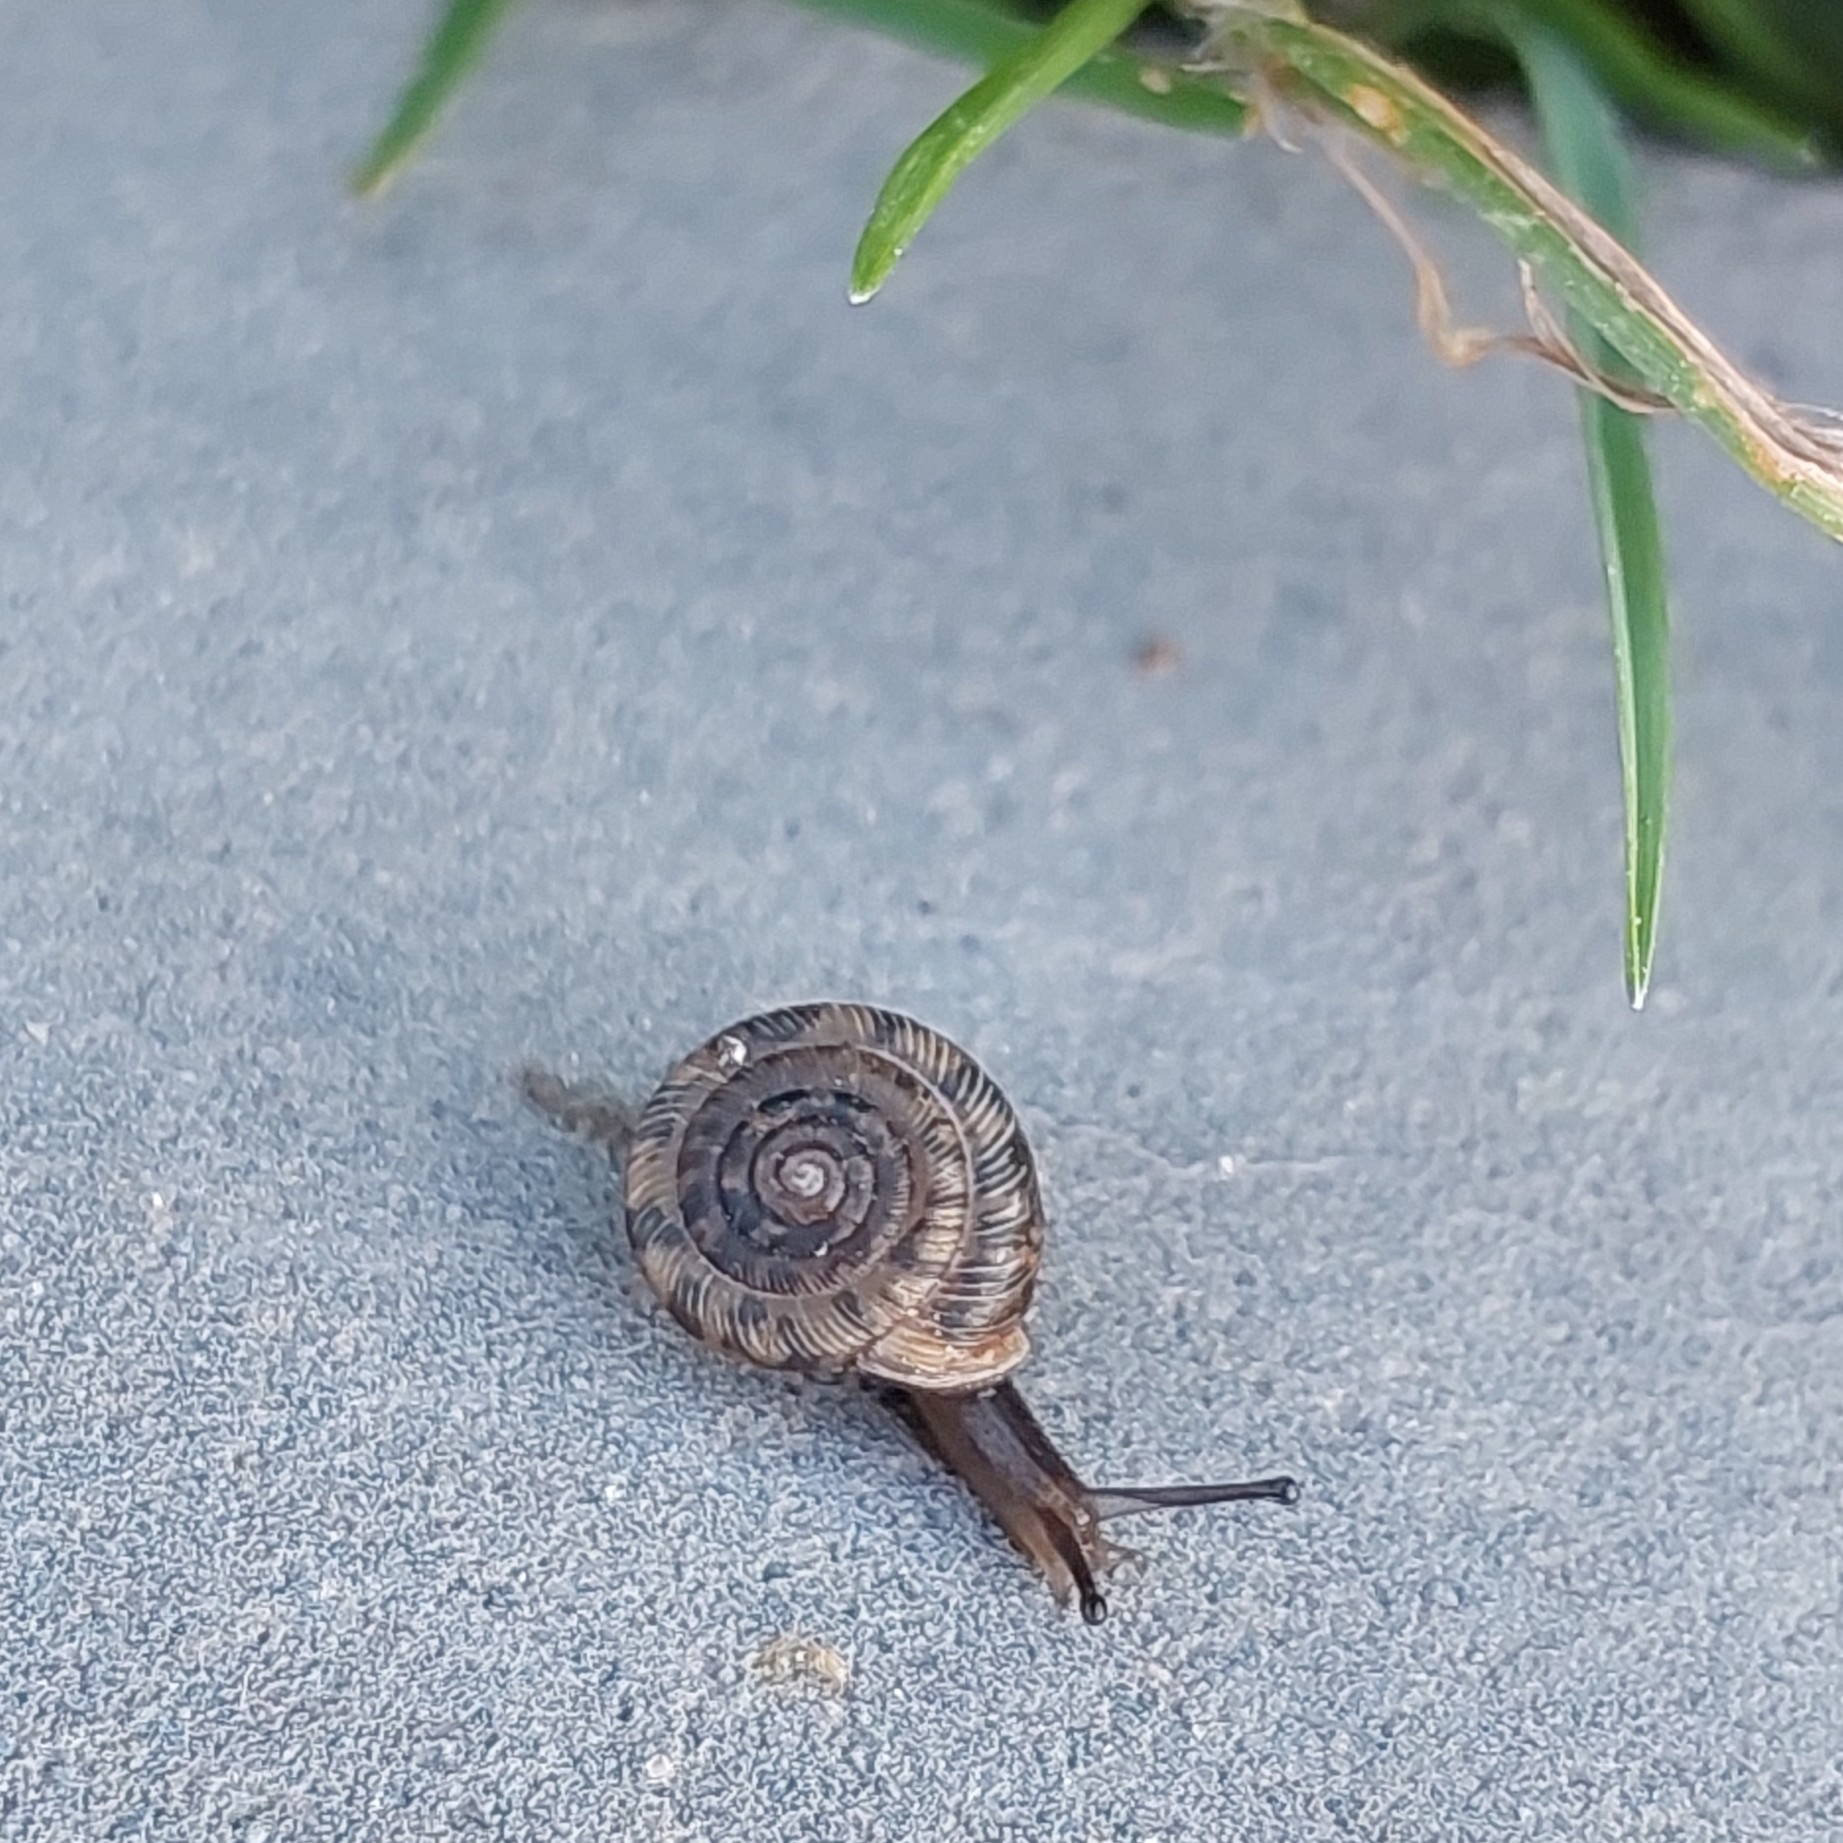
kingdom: Animalia
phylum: Mollusca
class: Gastropoda
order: Stylommatophora
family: Polygyridae
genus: Polygyra
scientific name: Polygyra cereolus
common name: Southern flatcone snail
